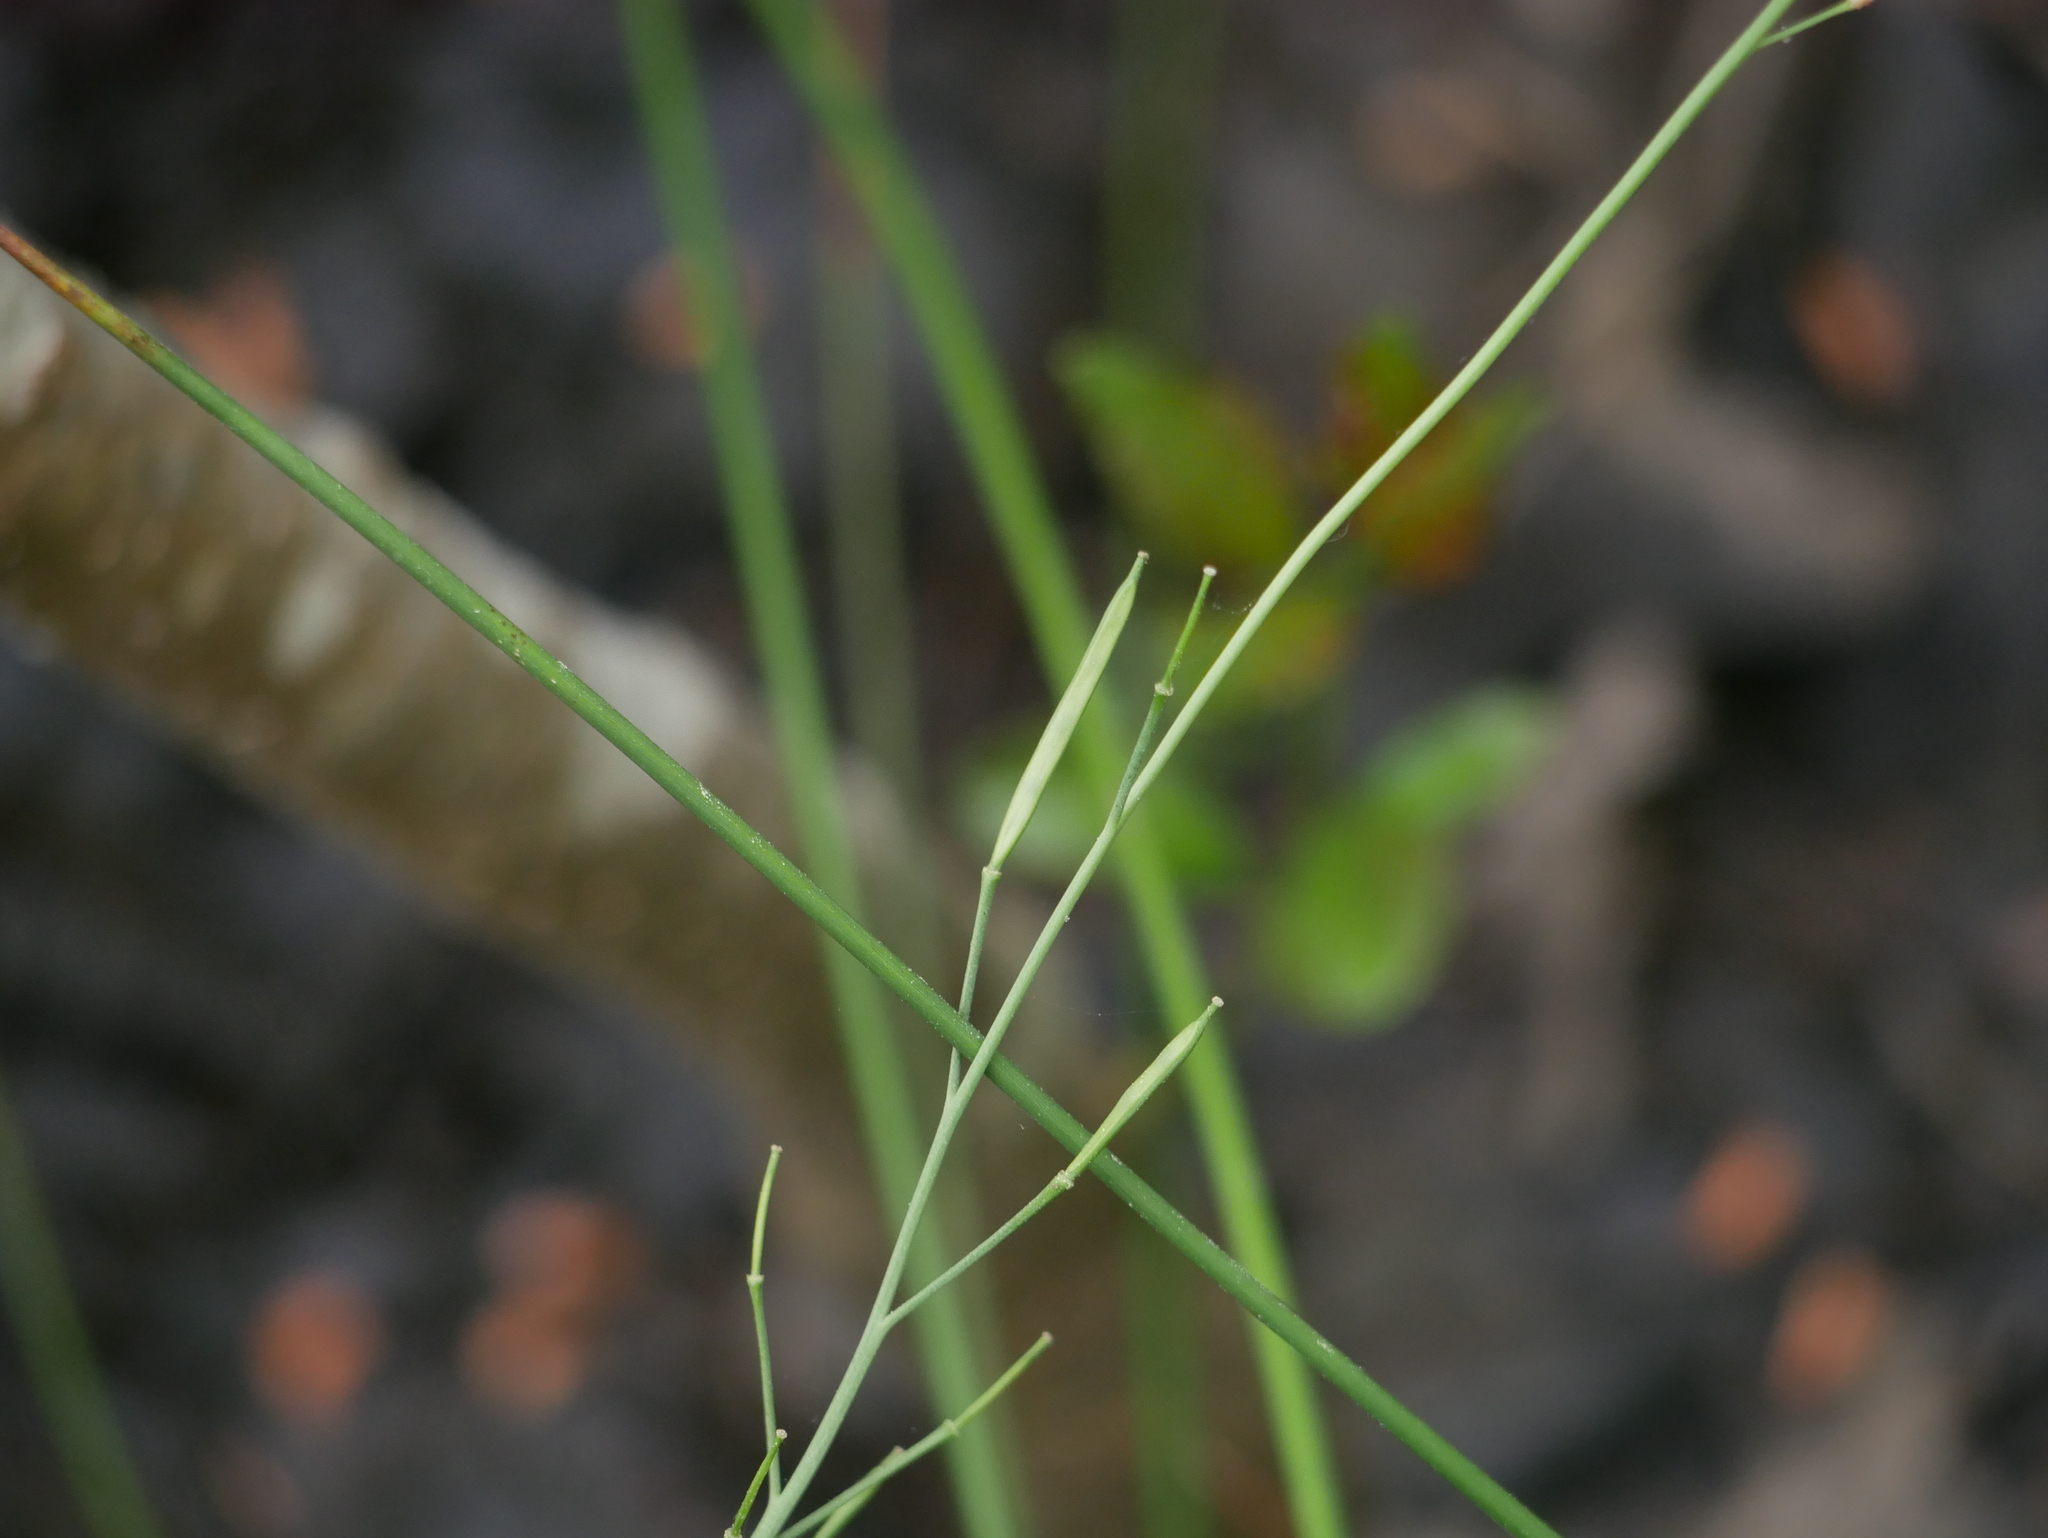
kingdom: Plantae
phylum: Tracheophyta
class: Magnoliopsida
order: Brassicales
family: Brassicaceae
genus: Cardamine
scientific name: Cardamine pratensis
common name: Cuckoo flower
